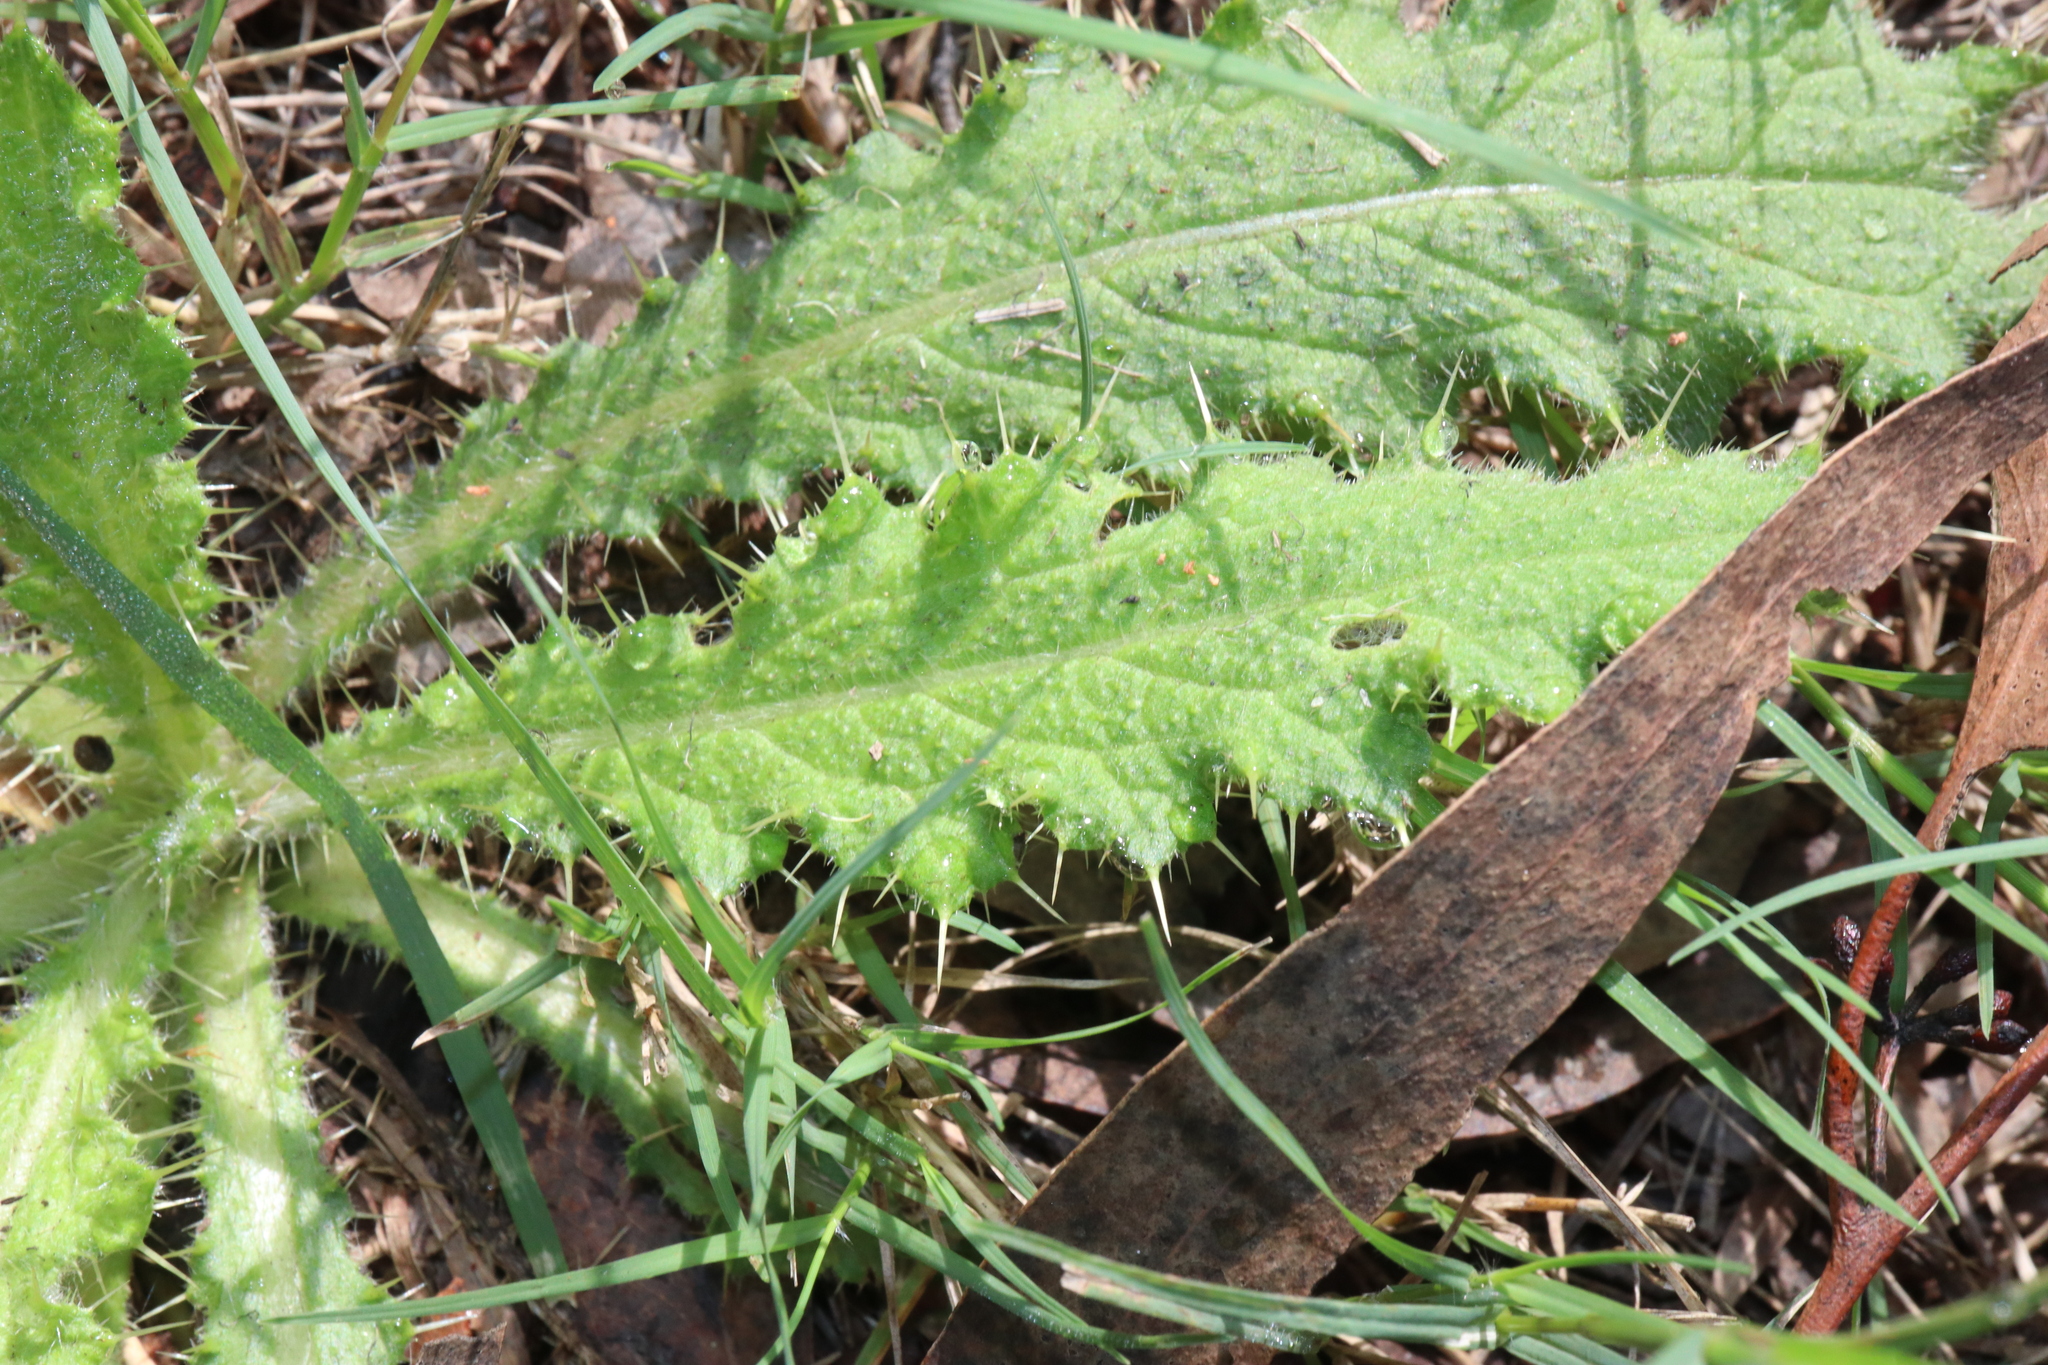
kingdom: Plantae
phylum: Tracheophyta
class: Magnoliopsida
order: Asterales
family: Asteraceae
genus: Cirsium
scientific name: Cirsium vulgare
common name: Bull thistle
